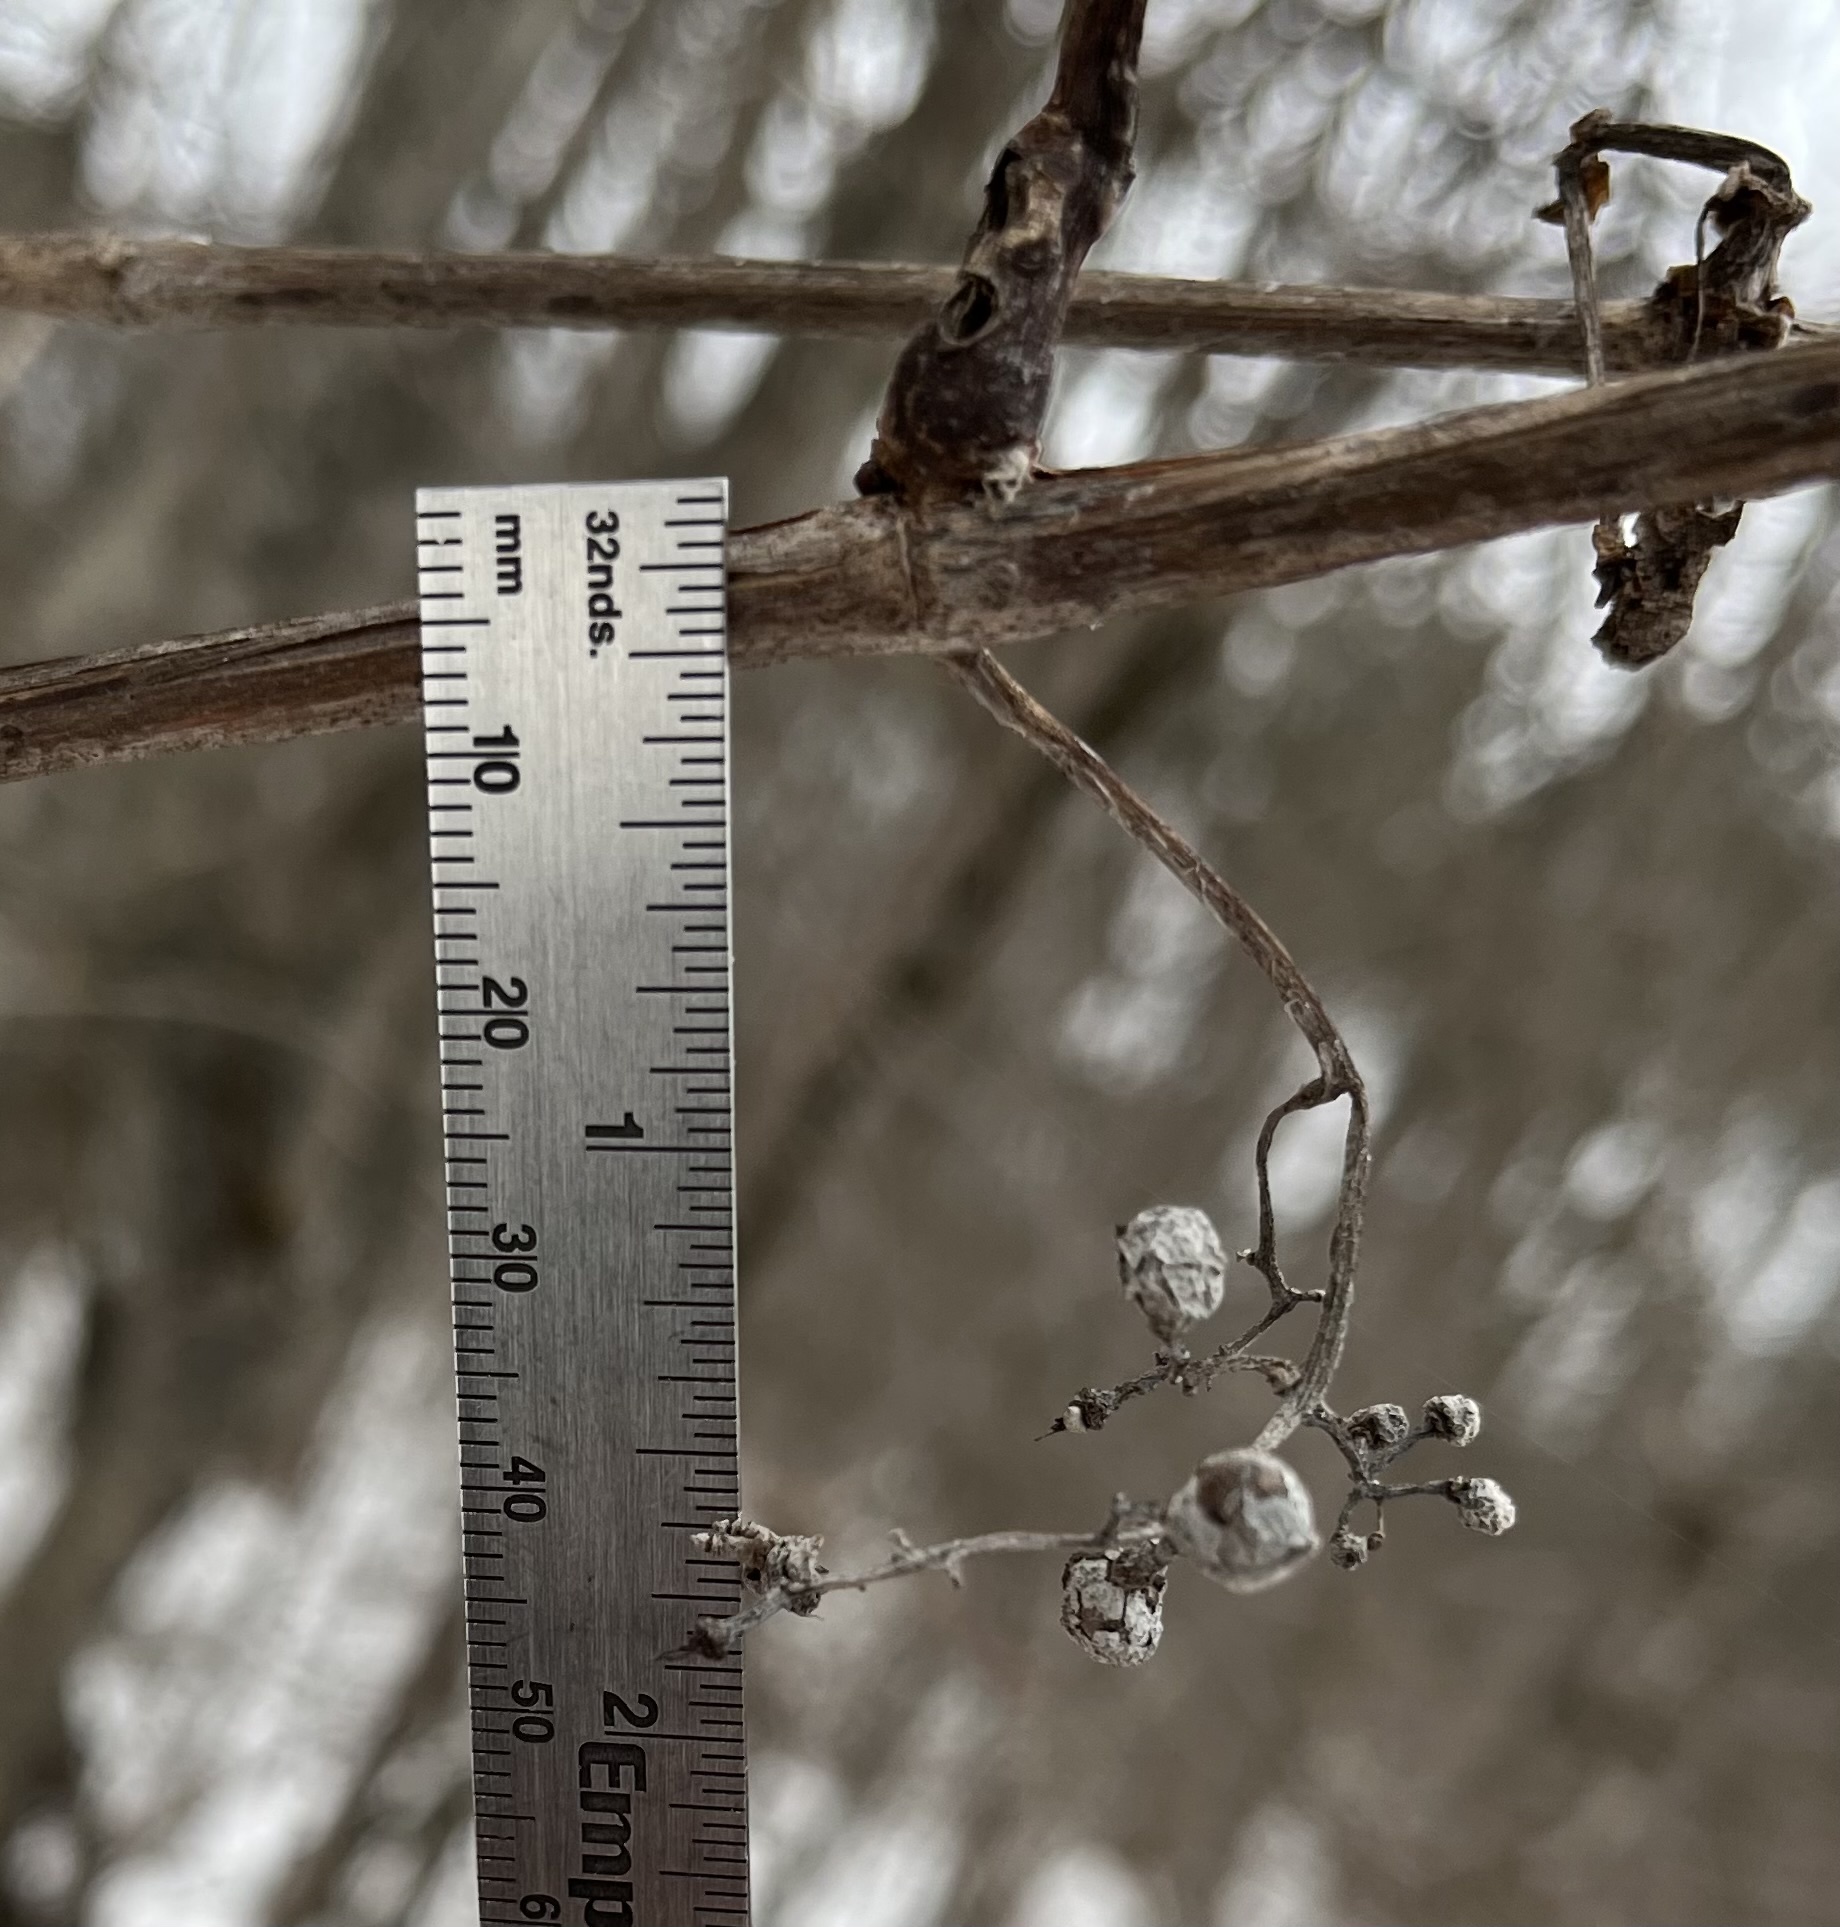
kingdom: Plantae
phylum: Tracheophyta
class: Magnoliopsida
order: Vitales
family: Vitaceae
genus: Vitis
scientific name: Vitis riparia
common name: Frost grape
